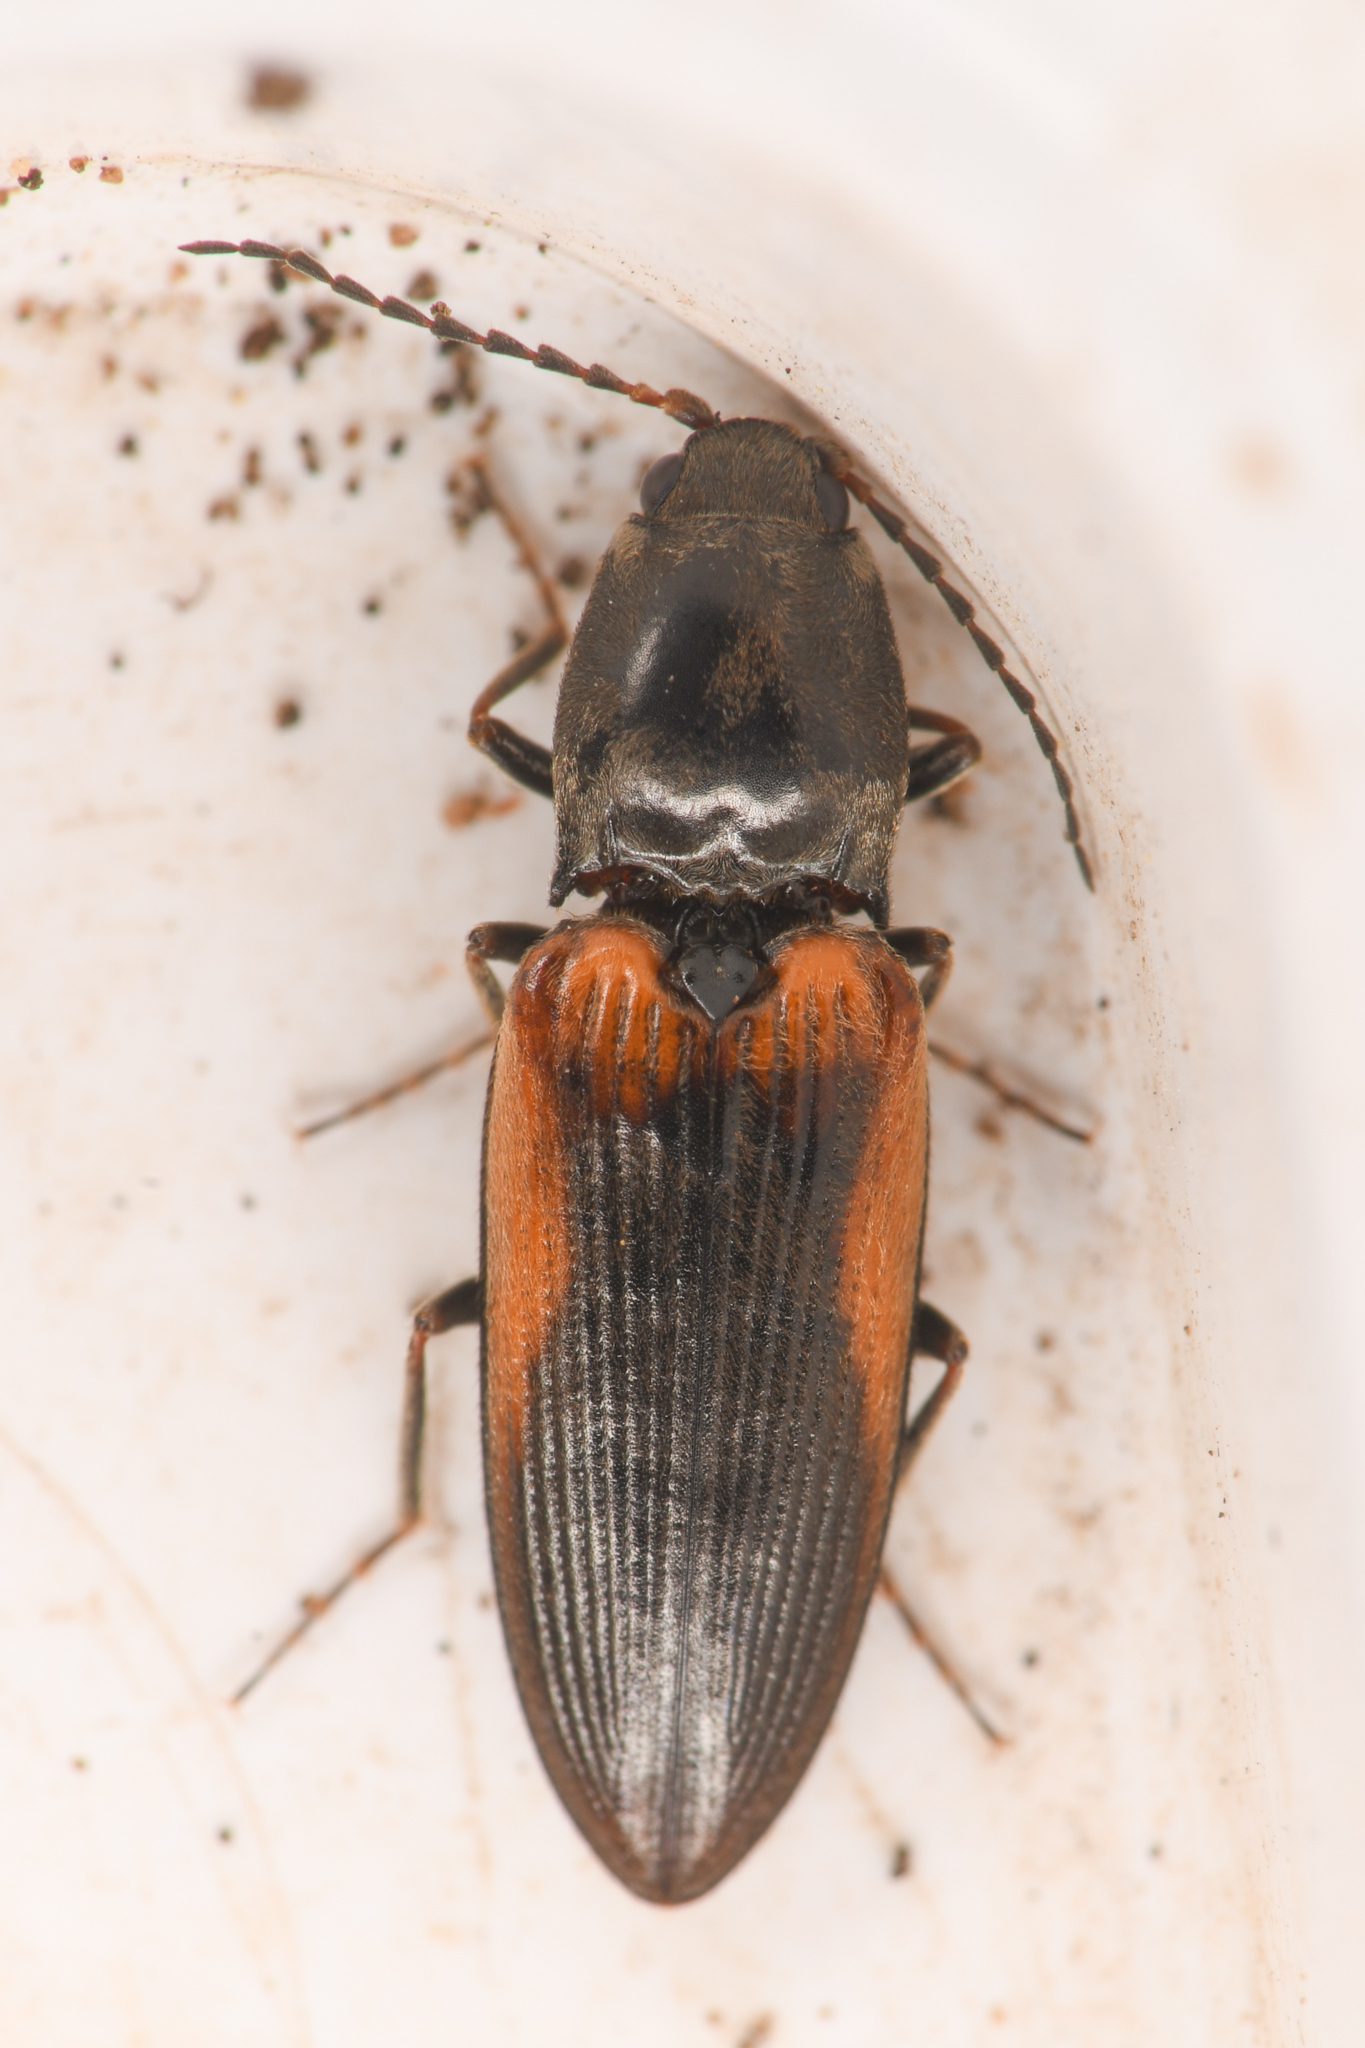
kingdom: Animalia
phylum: Arthropoda
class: Insecta
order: Coleoptera
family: Elateridae
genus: Cardiophorus
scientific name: Cardiophorus edwardsi
